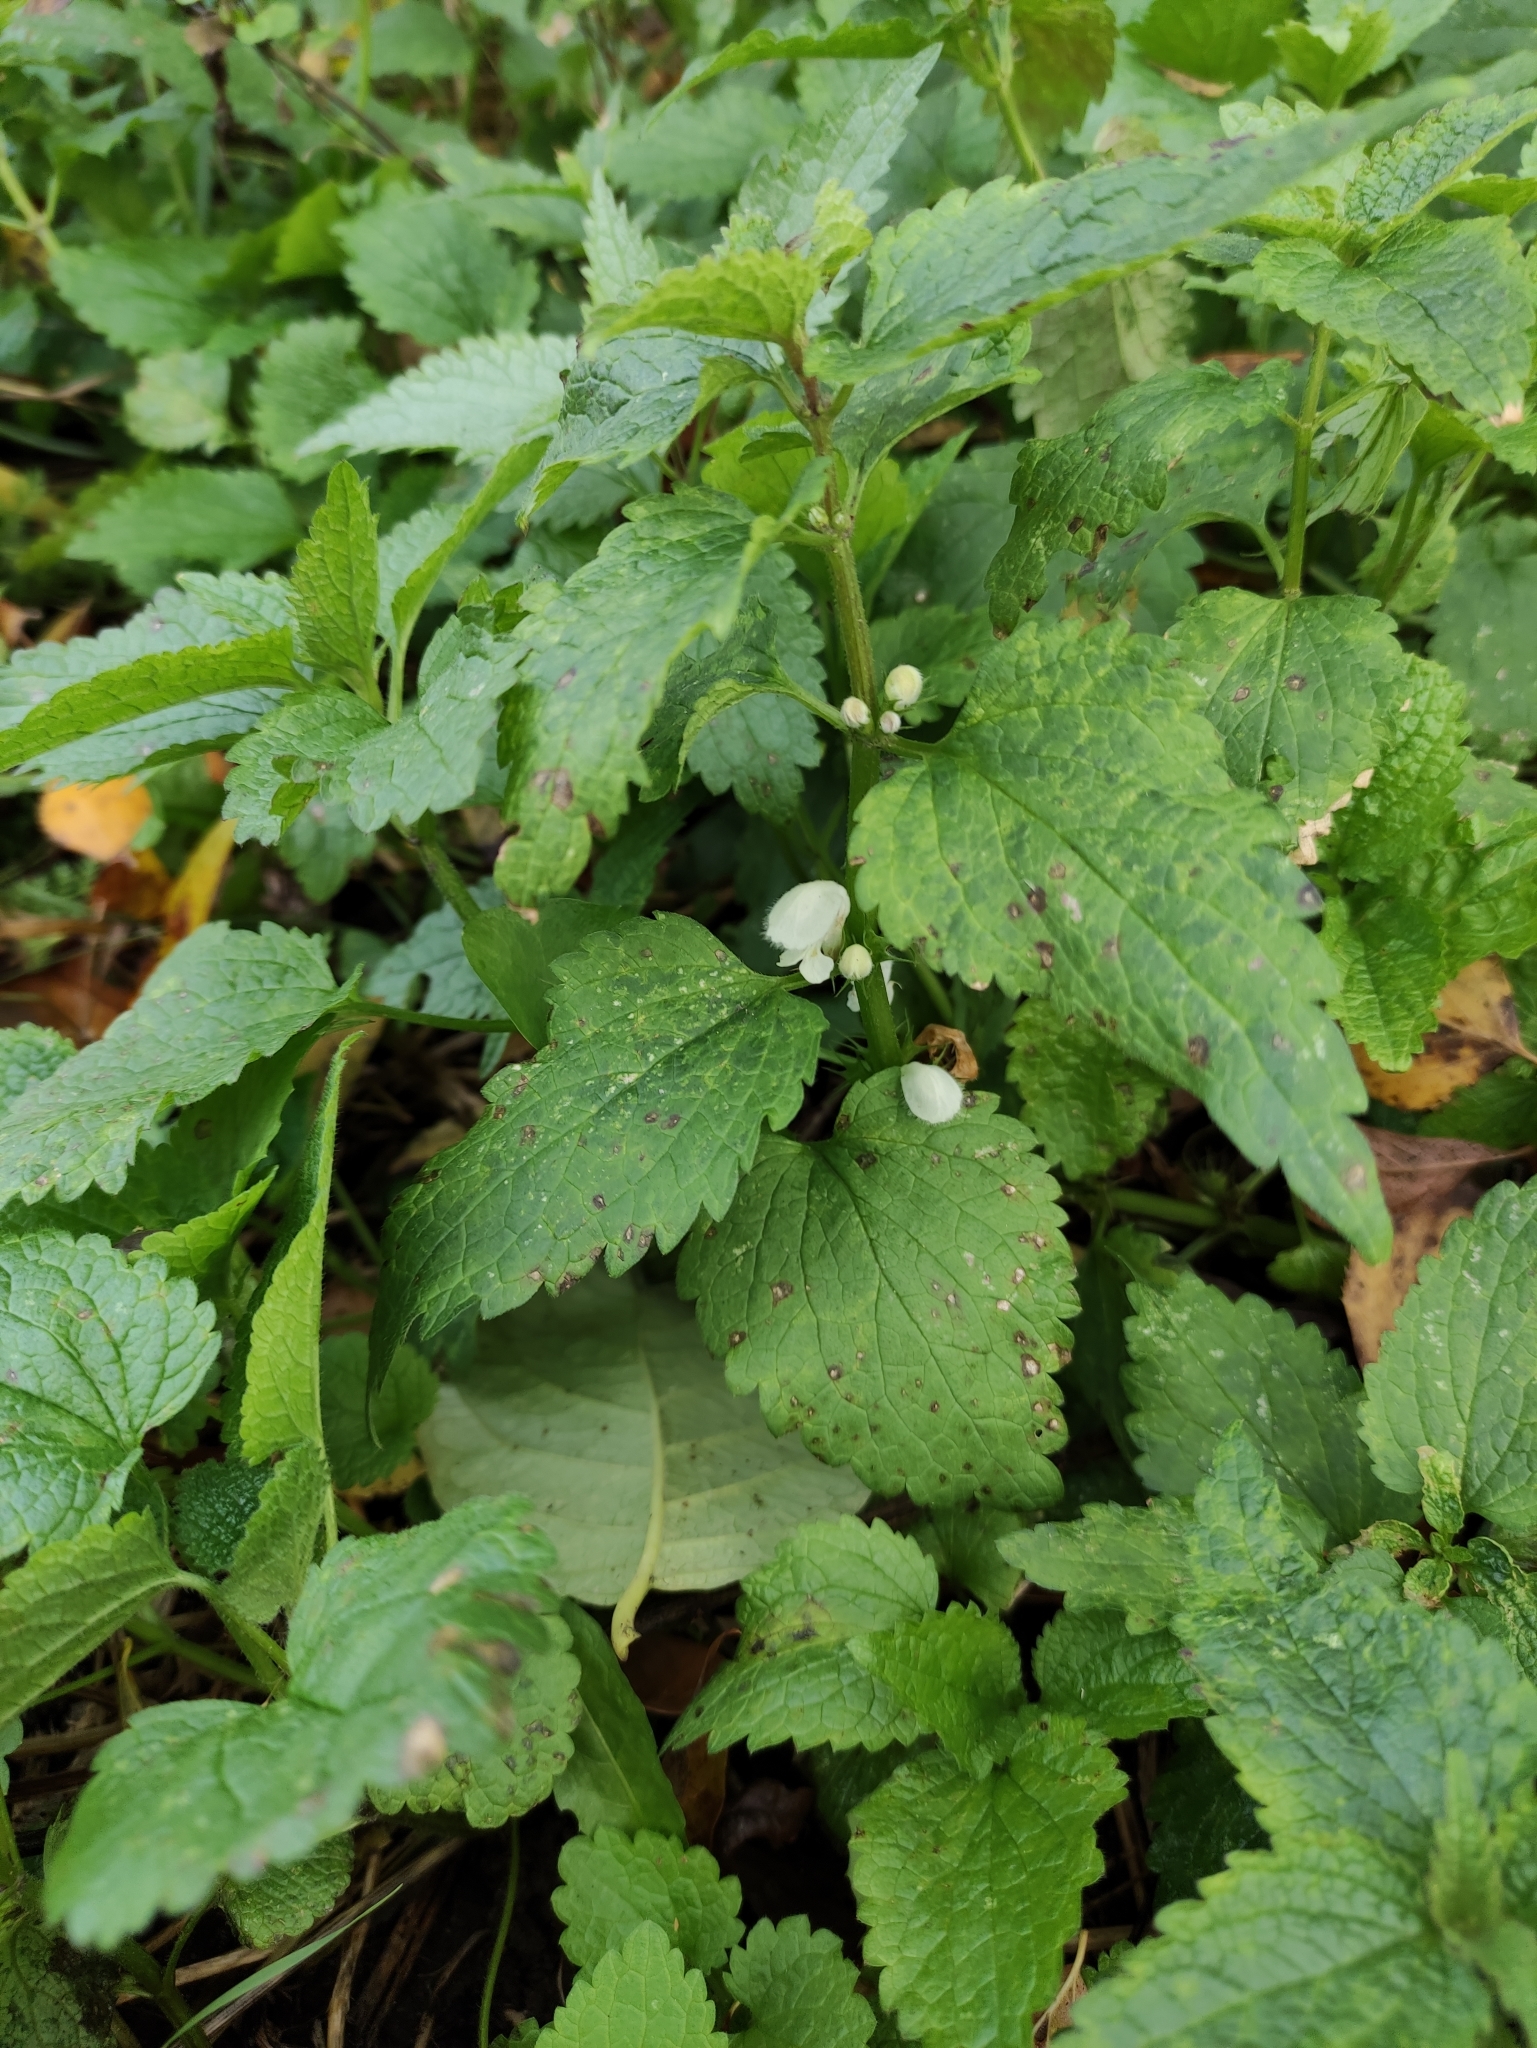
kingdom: Plantae
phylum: Tracheophyta
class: Magnoliopsida
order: Lamiales
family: Lamiaceae
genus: Lamium
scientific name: Lamium album
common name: White dead-nettle
